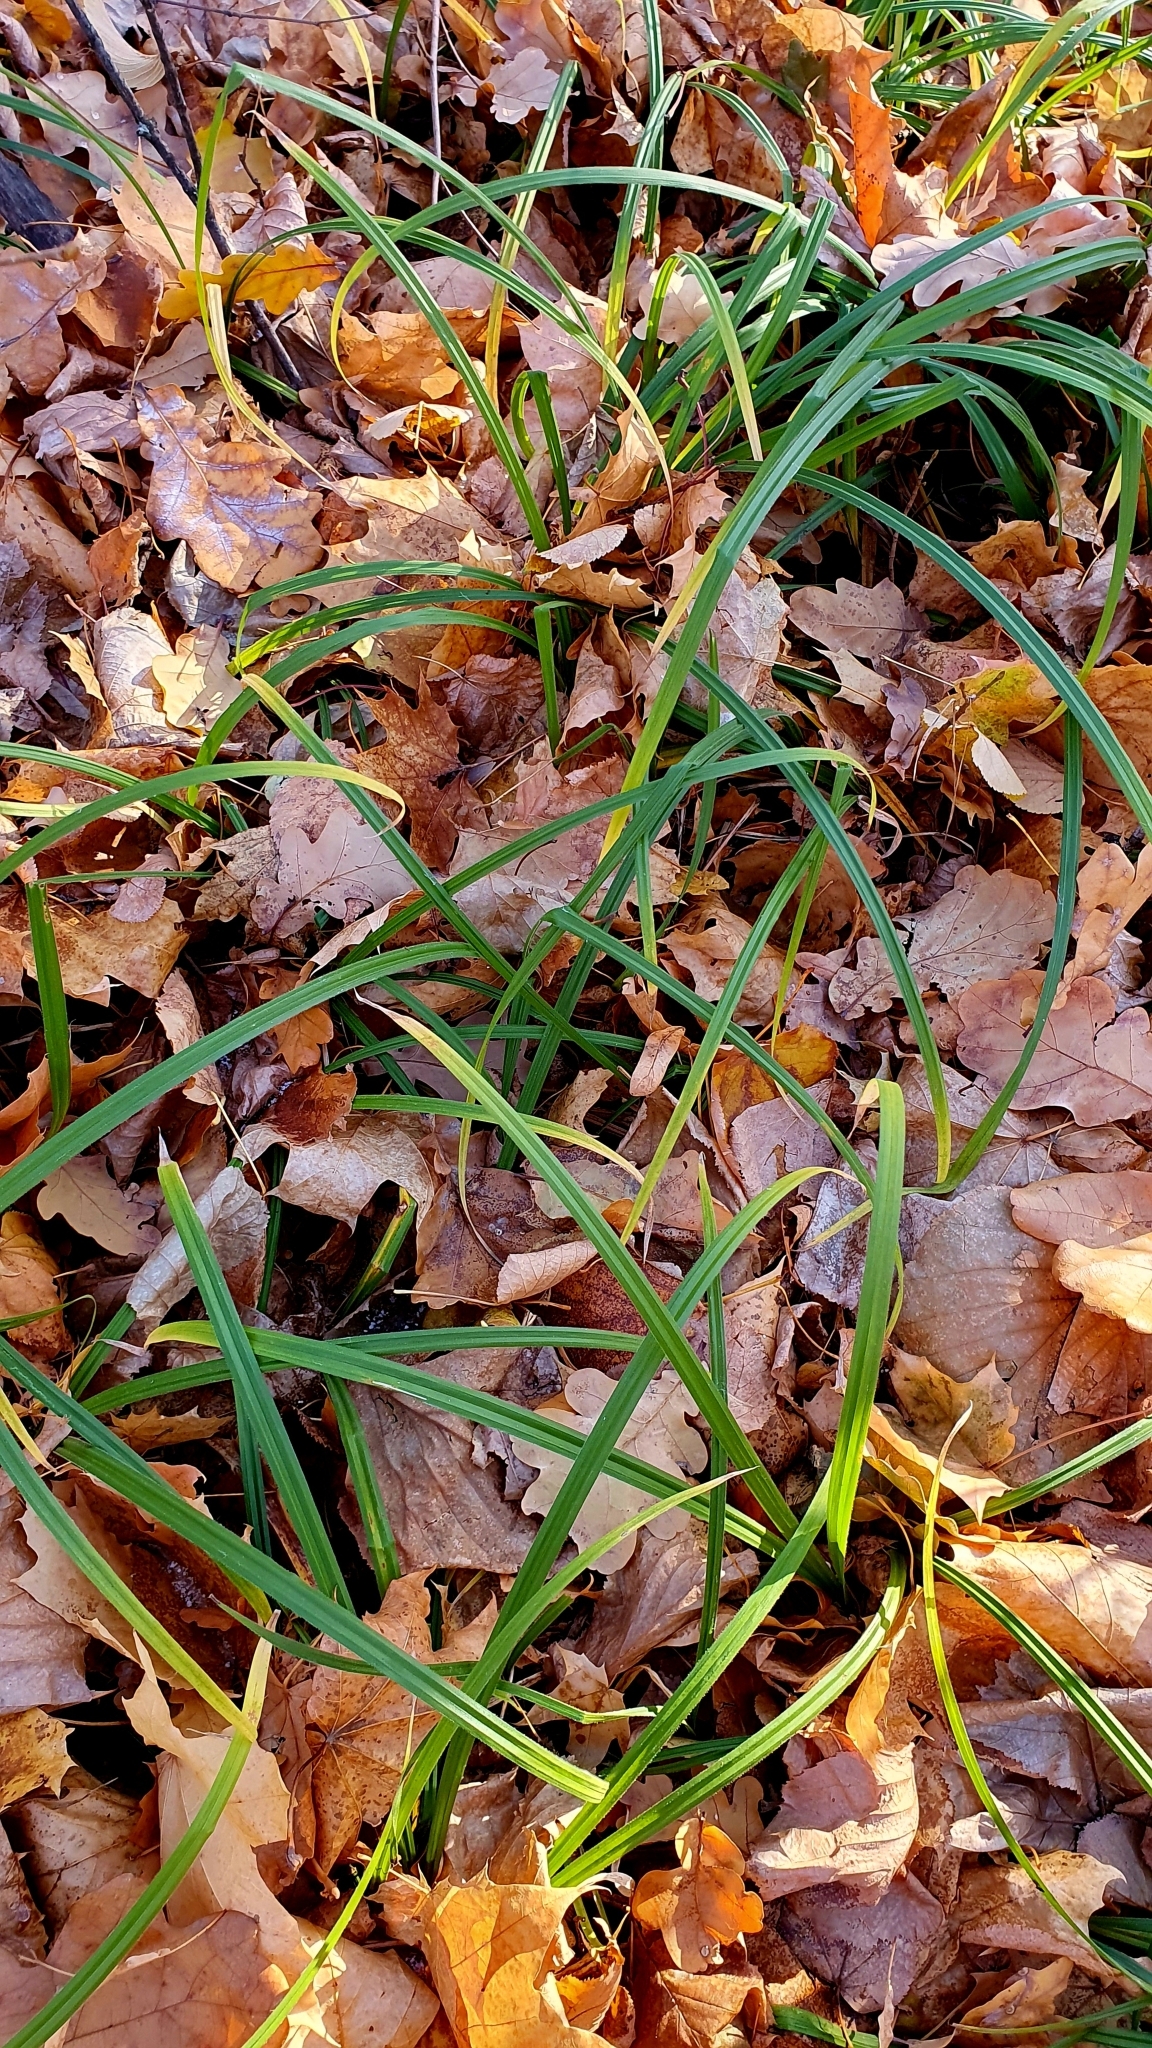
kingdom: Plantae
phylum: Tracheophyta
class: Liliopsida
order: Poales
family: Cyperaceae
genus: Carex
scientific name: Carex pilosa
